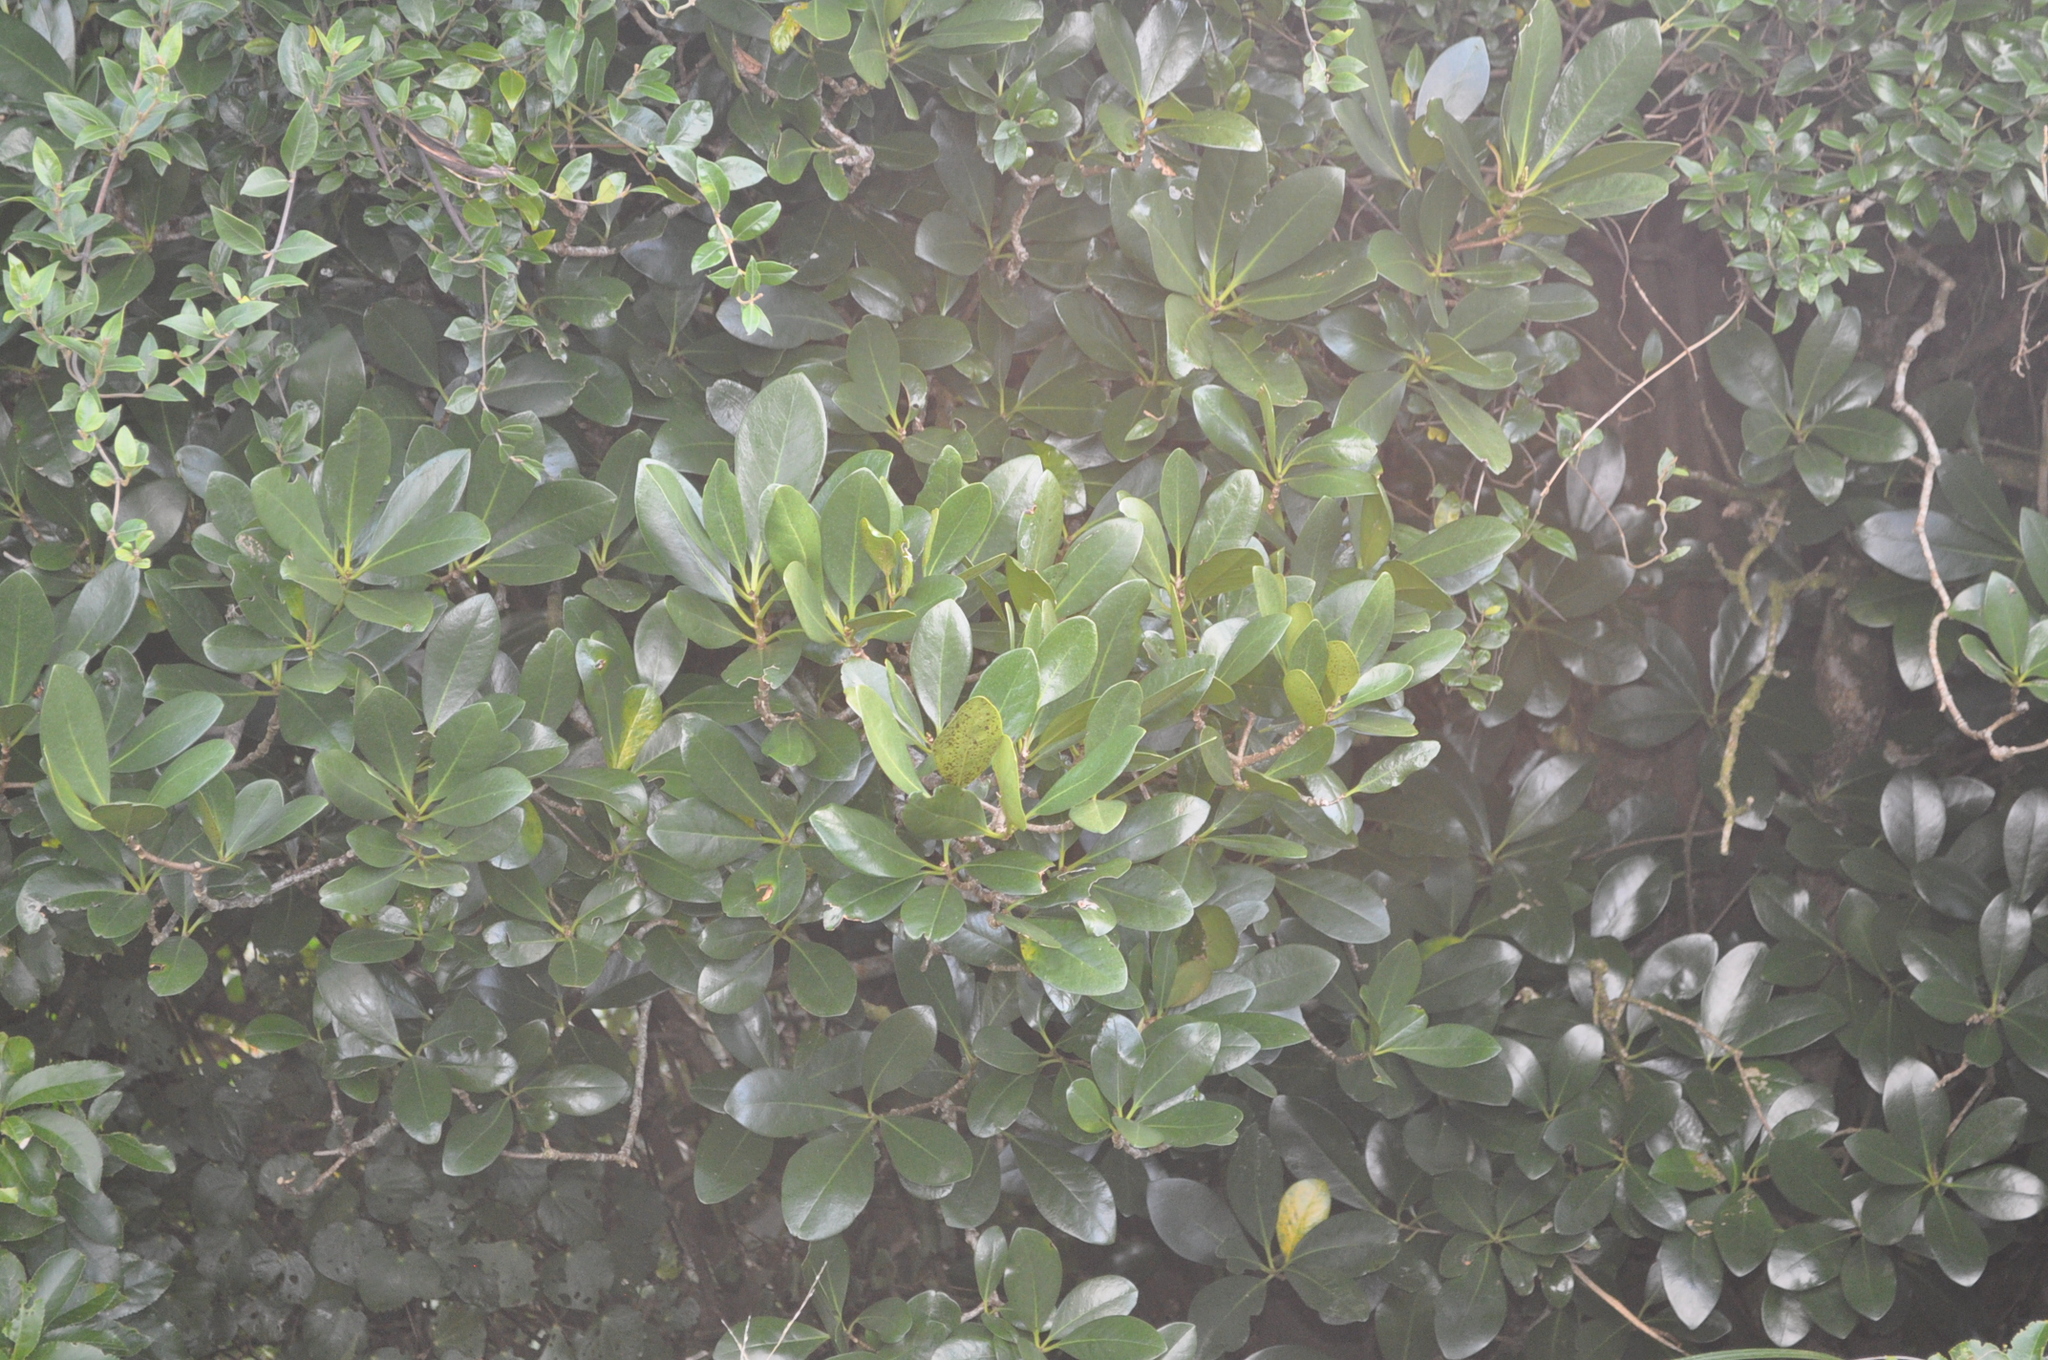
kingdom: Plantae
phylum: Tracheophyta
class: Magnoliopsida
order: Cucurbitales
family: Corynocarpaceae
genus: Corynocarpus
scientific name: Corynocarpus laevigatus
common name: New zealand laurel
